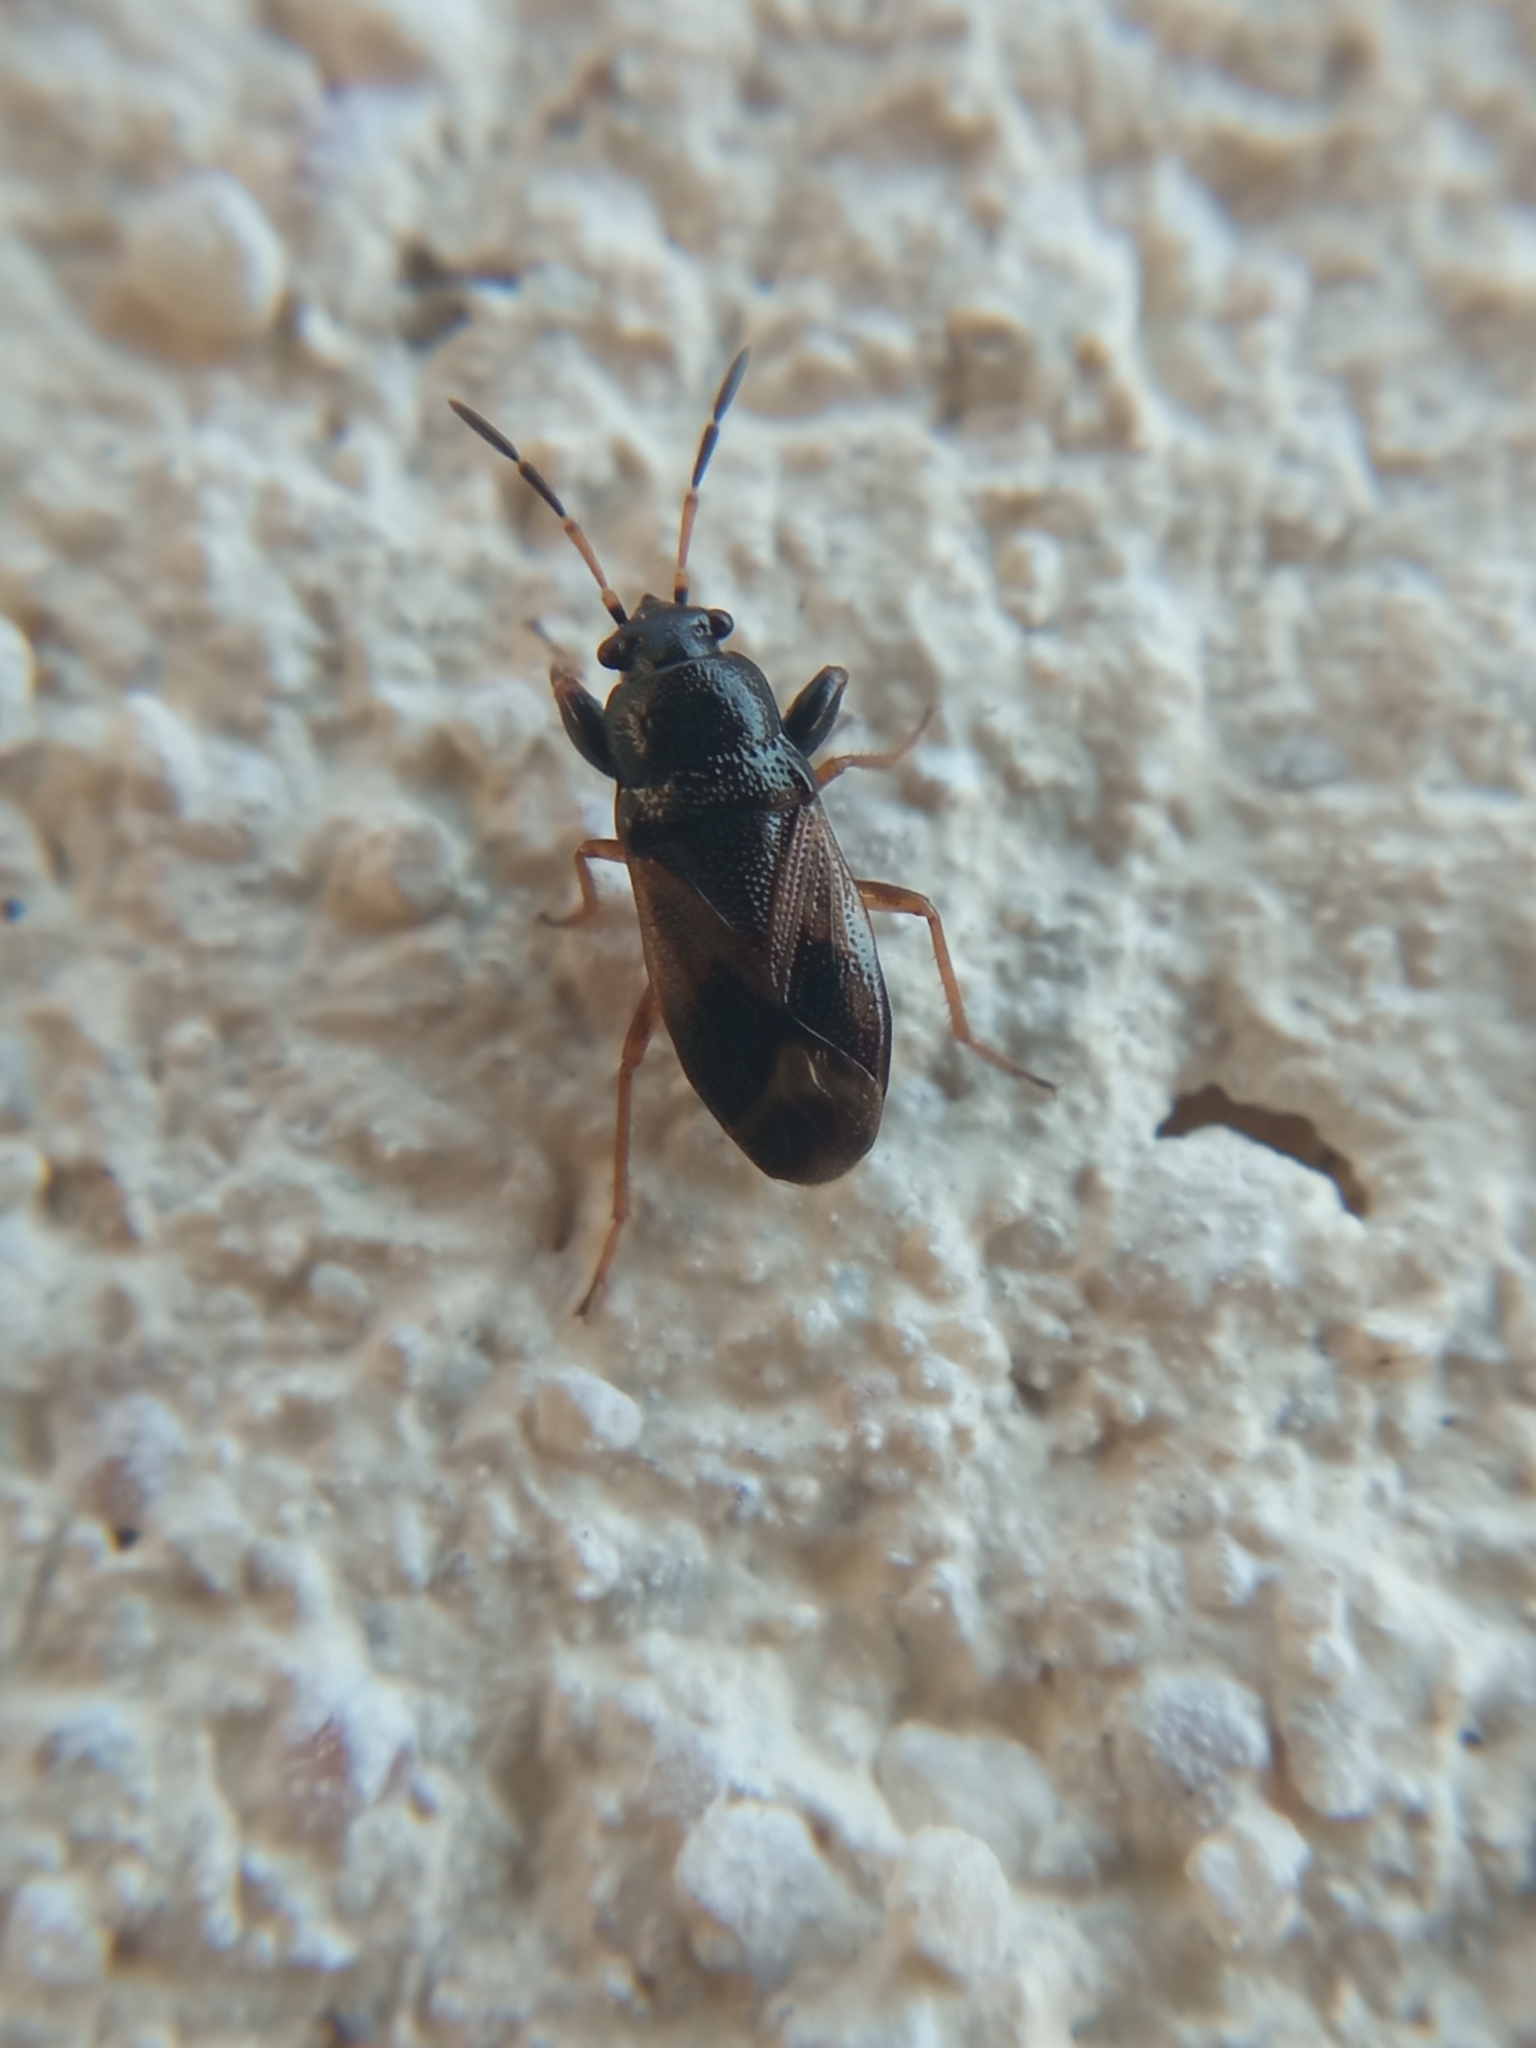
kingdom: Animalia
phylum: Arthropoda
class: Insecta
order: Hemiptera
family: Rhyparochromidae
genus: Megalonotus
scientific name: Megalonotus praetextatus
